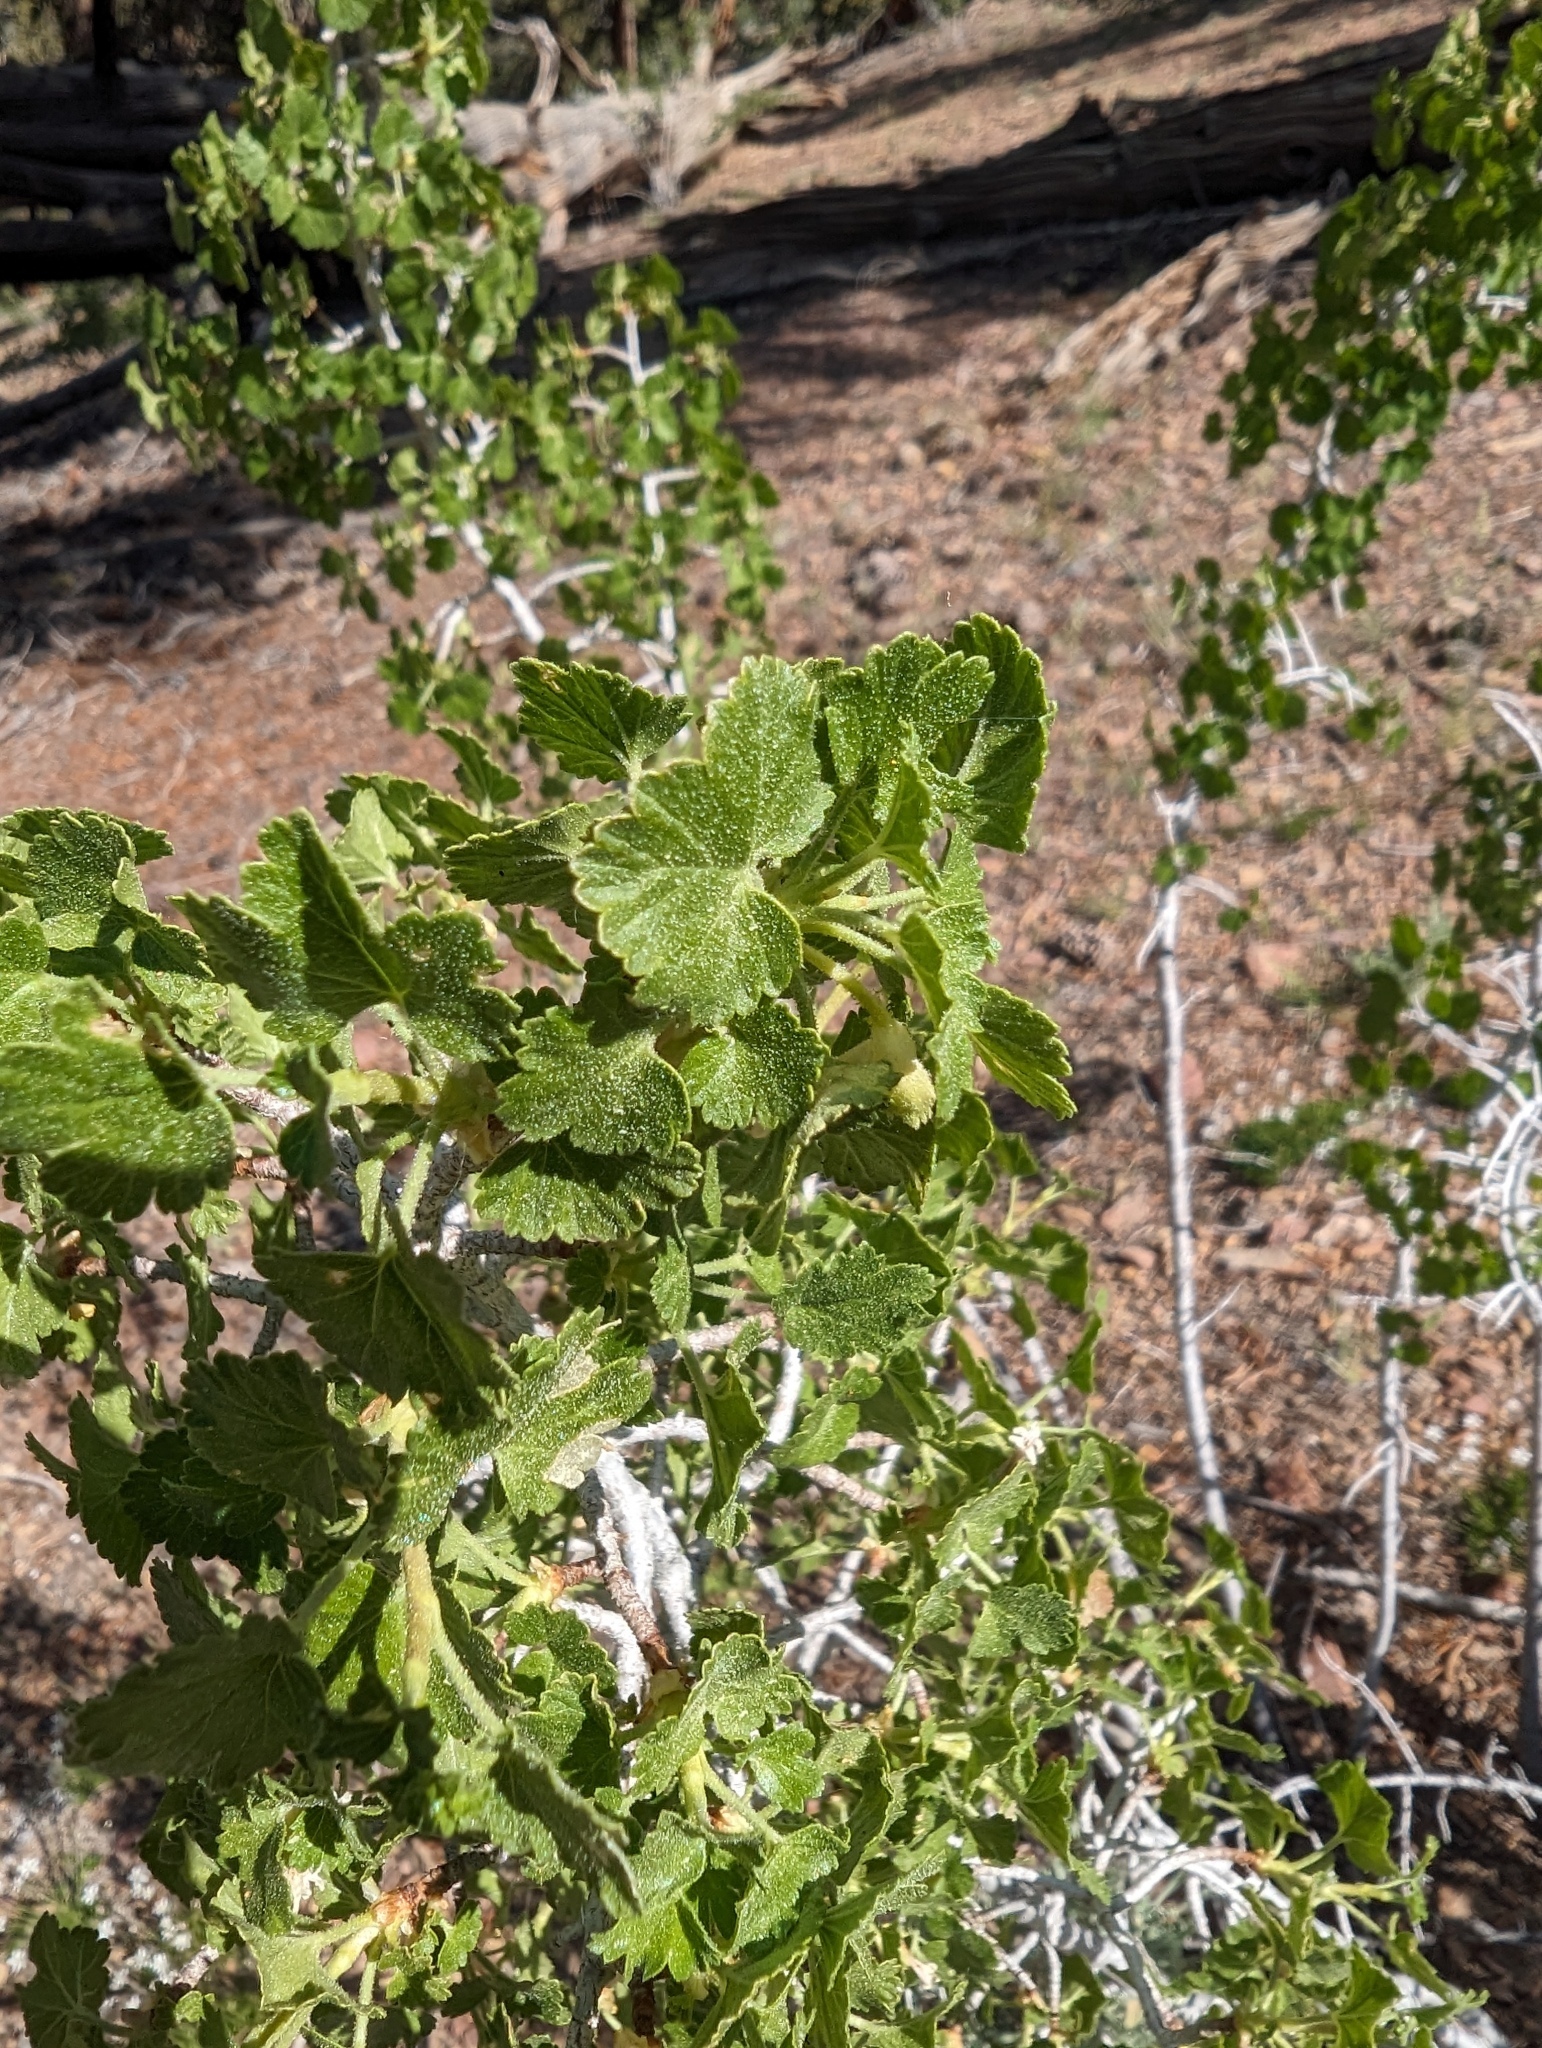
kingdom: Plantae
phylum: Tracheophyta
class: Magnoliopsida
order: Saxifragales
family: Grossulariaceae
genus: Ribes
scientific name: Ribes cereum
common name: Wax currant
